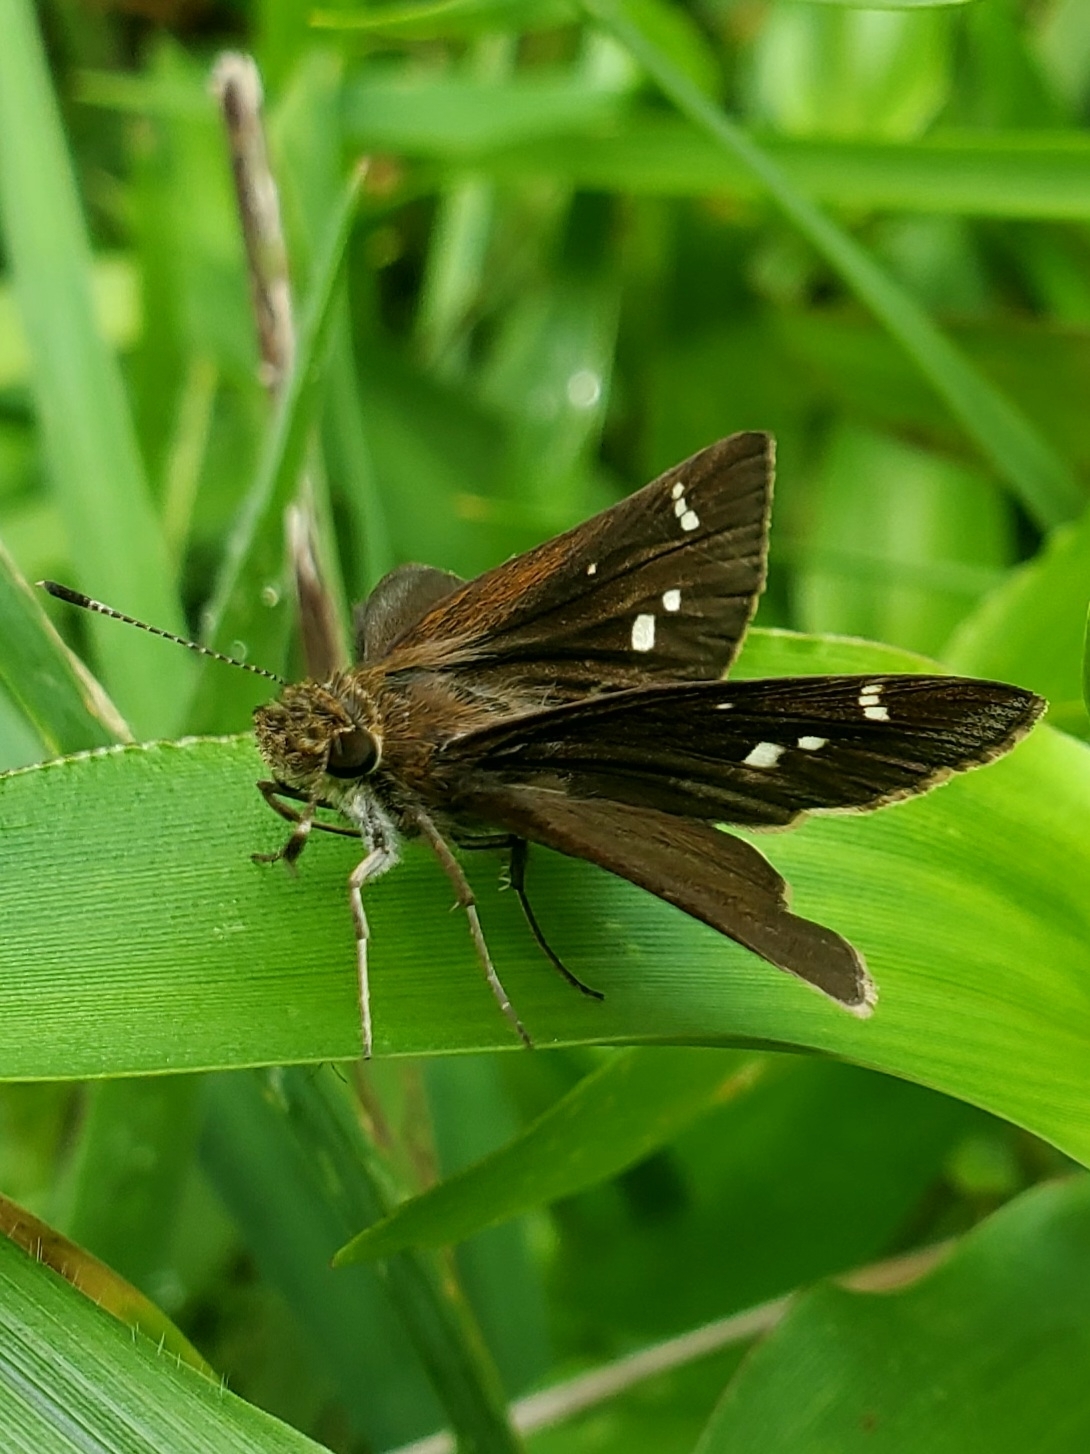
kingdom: Animalia
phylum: Arthropoda
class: Insecta
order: Lepidoptera
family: Hesperiidae
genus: Lerema
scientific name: Lerema accius
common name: Clouded skipper
